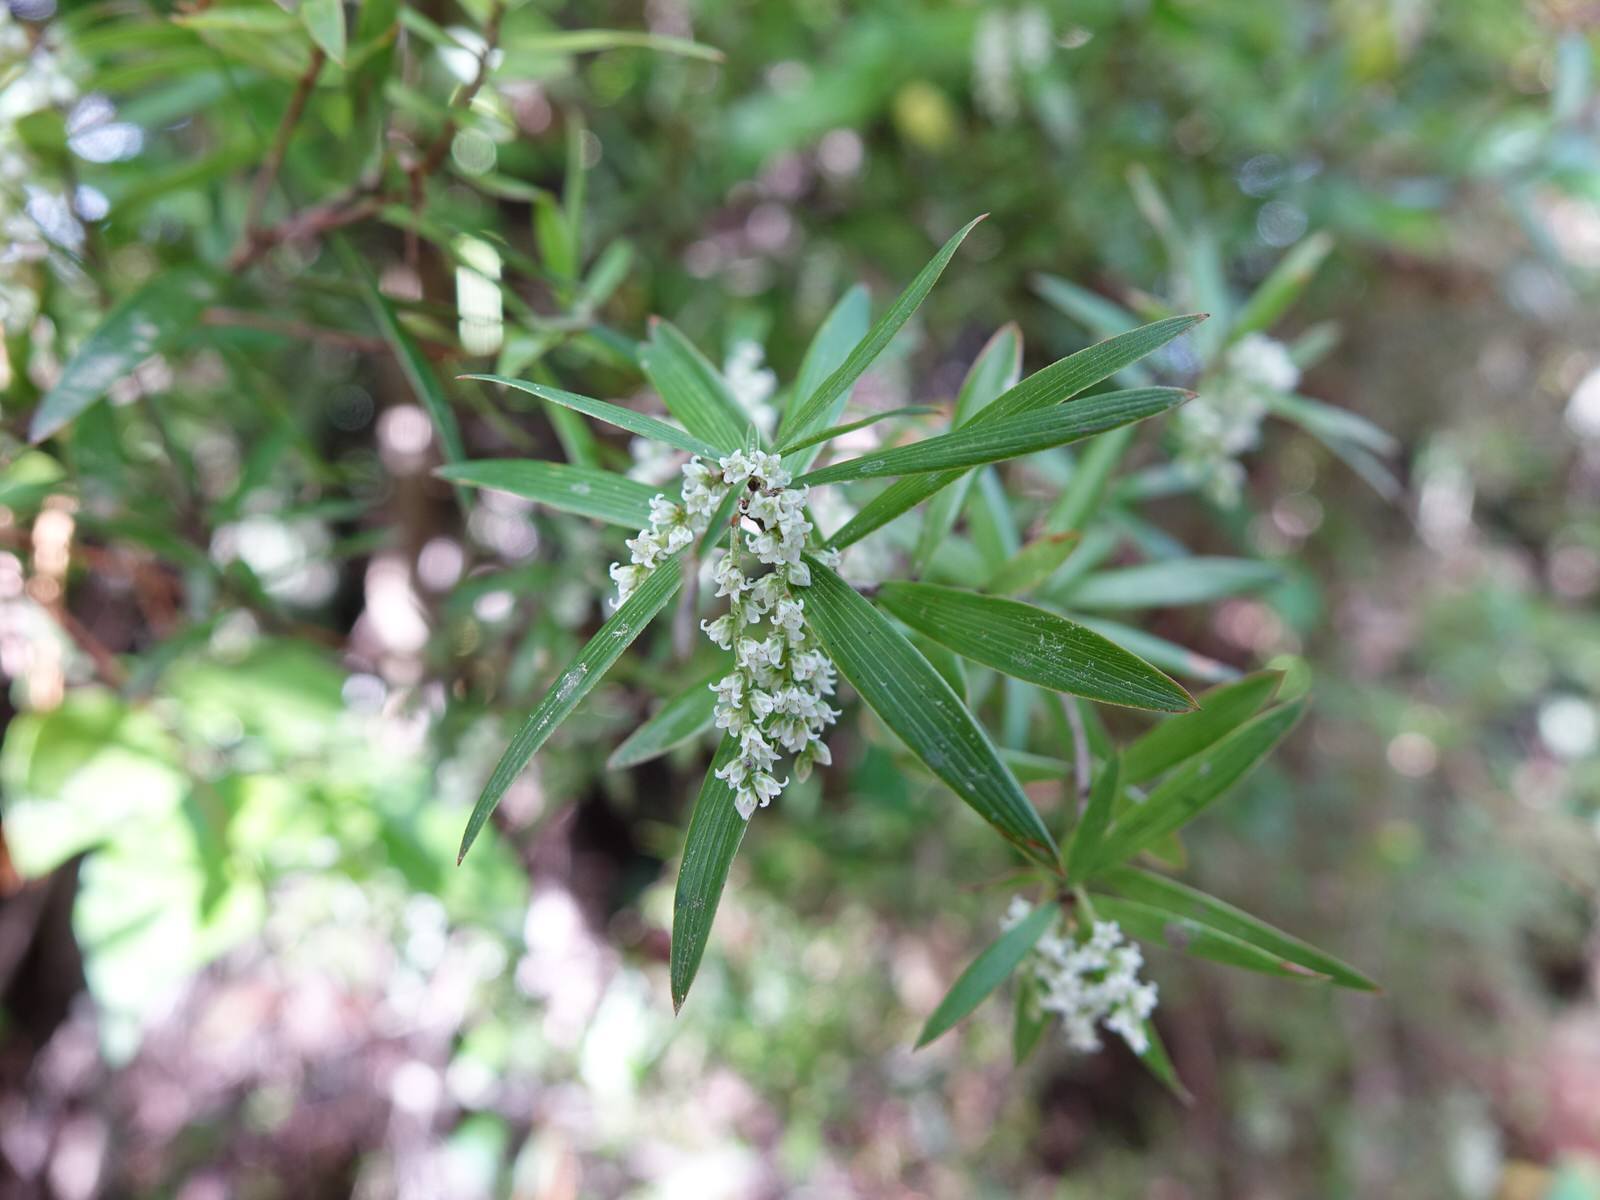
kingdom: Plantae
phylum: Tracheophyta
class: Magnoliopsida
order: Ericales
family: Ericaceae
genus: Leucopogon
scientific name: Leucopogon fasciculatus
